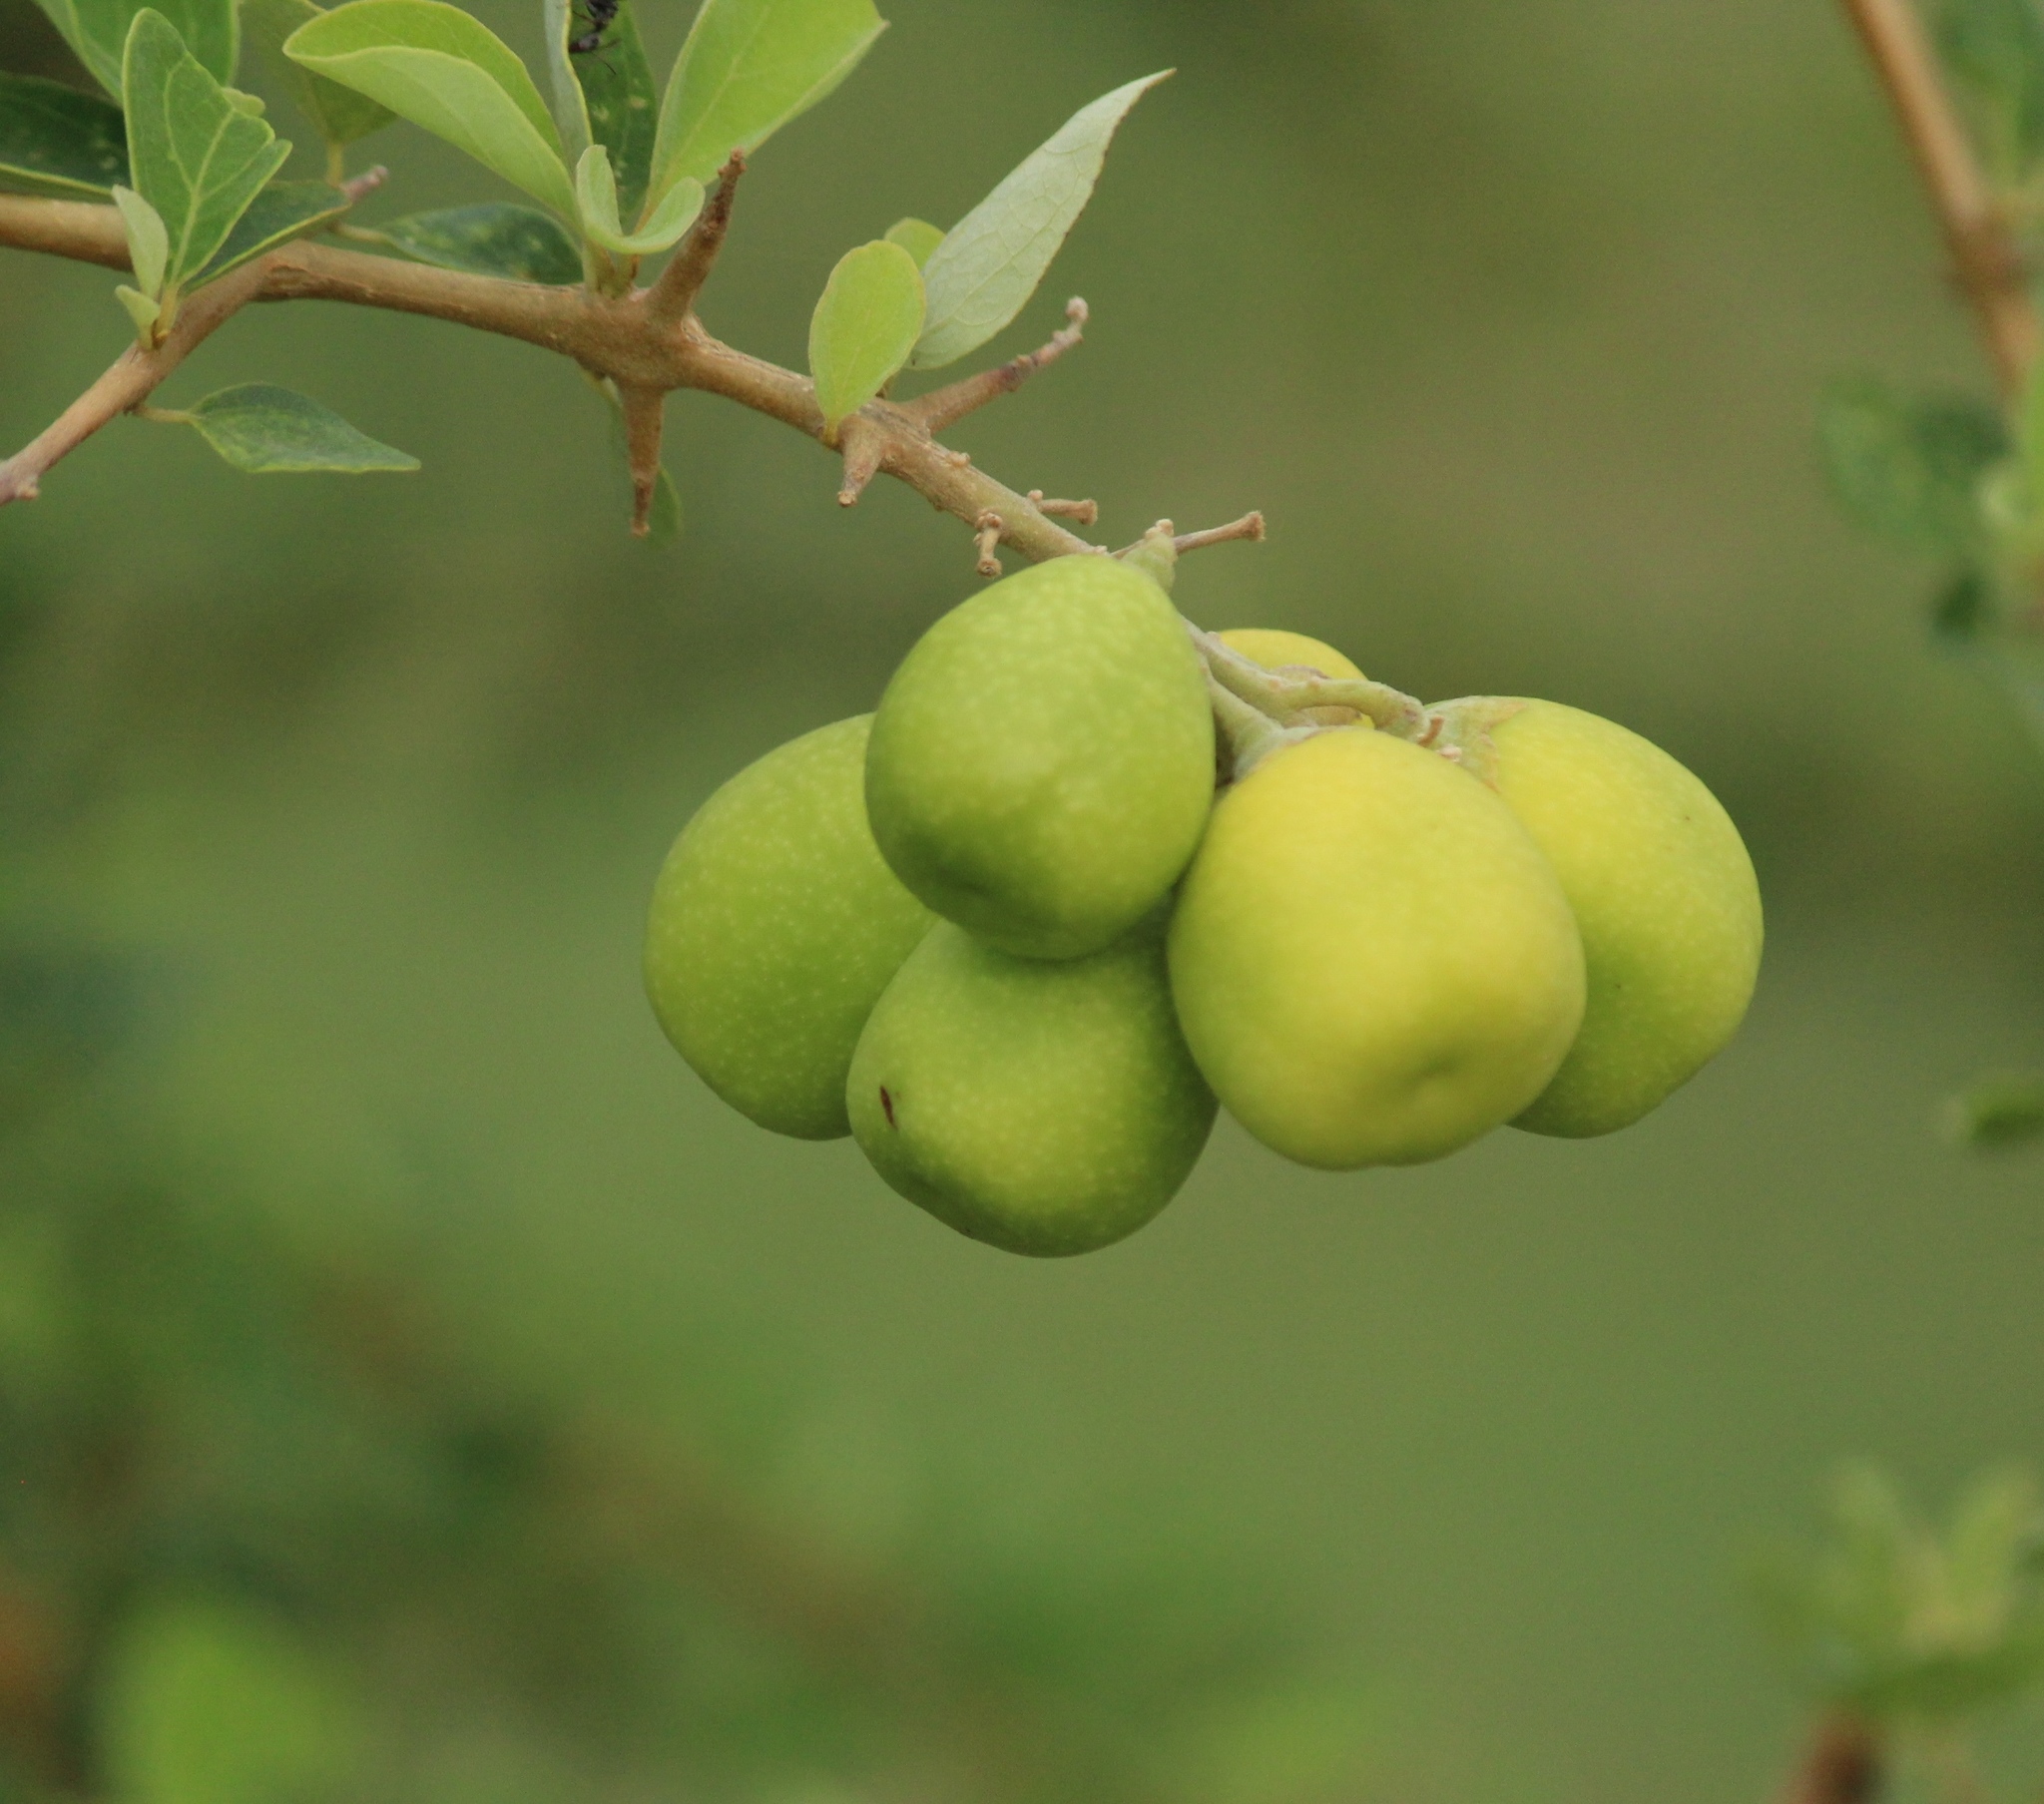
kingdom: Plantae
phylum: Tracheophyta
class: Magnoliopsida
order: Lamiales
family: Lamiaceae
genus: Gmelina
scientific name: Gmelina asiatica
